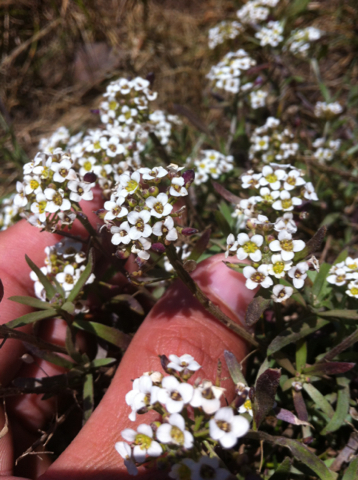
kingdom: Plantae
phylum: Tracheophyta
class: Magnoliopsida
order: Brassicales
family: Brassicaceae
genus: Lobularia
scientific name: Lobularia maritima
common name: Sweet alison
